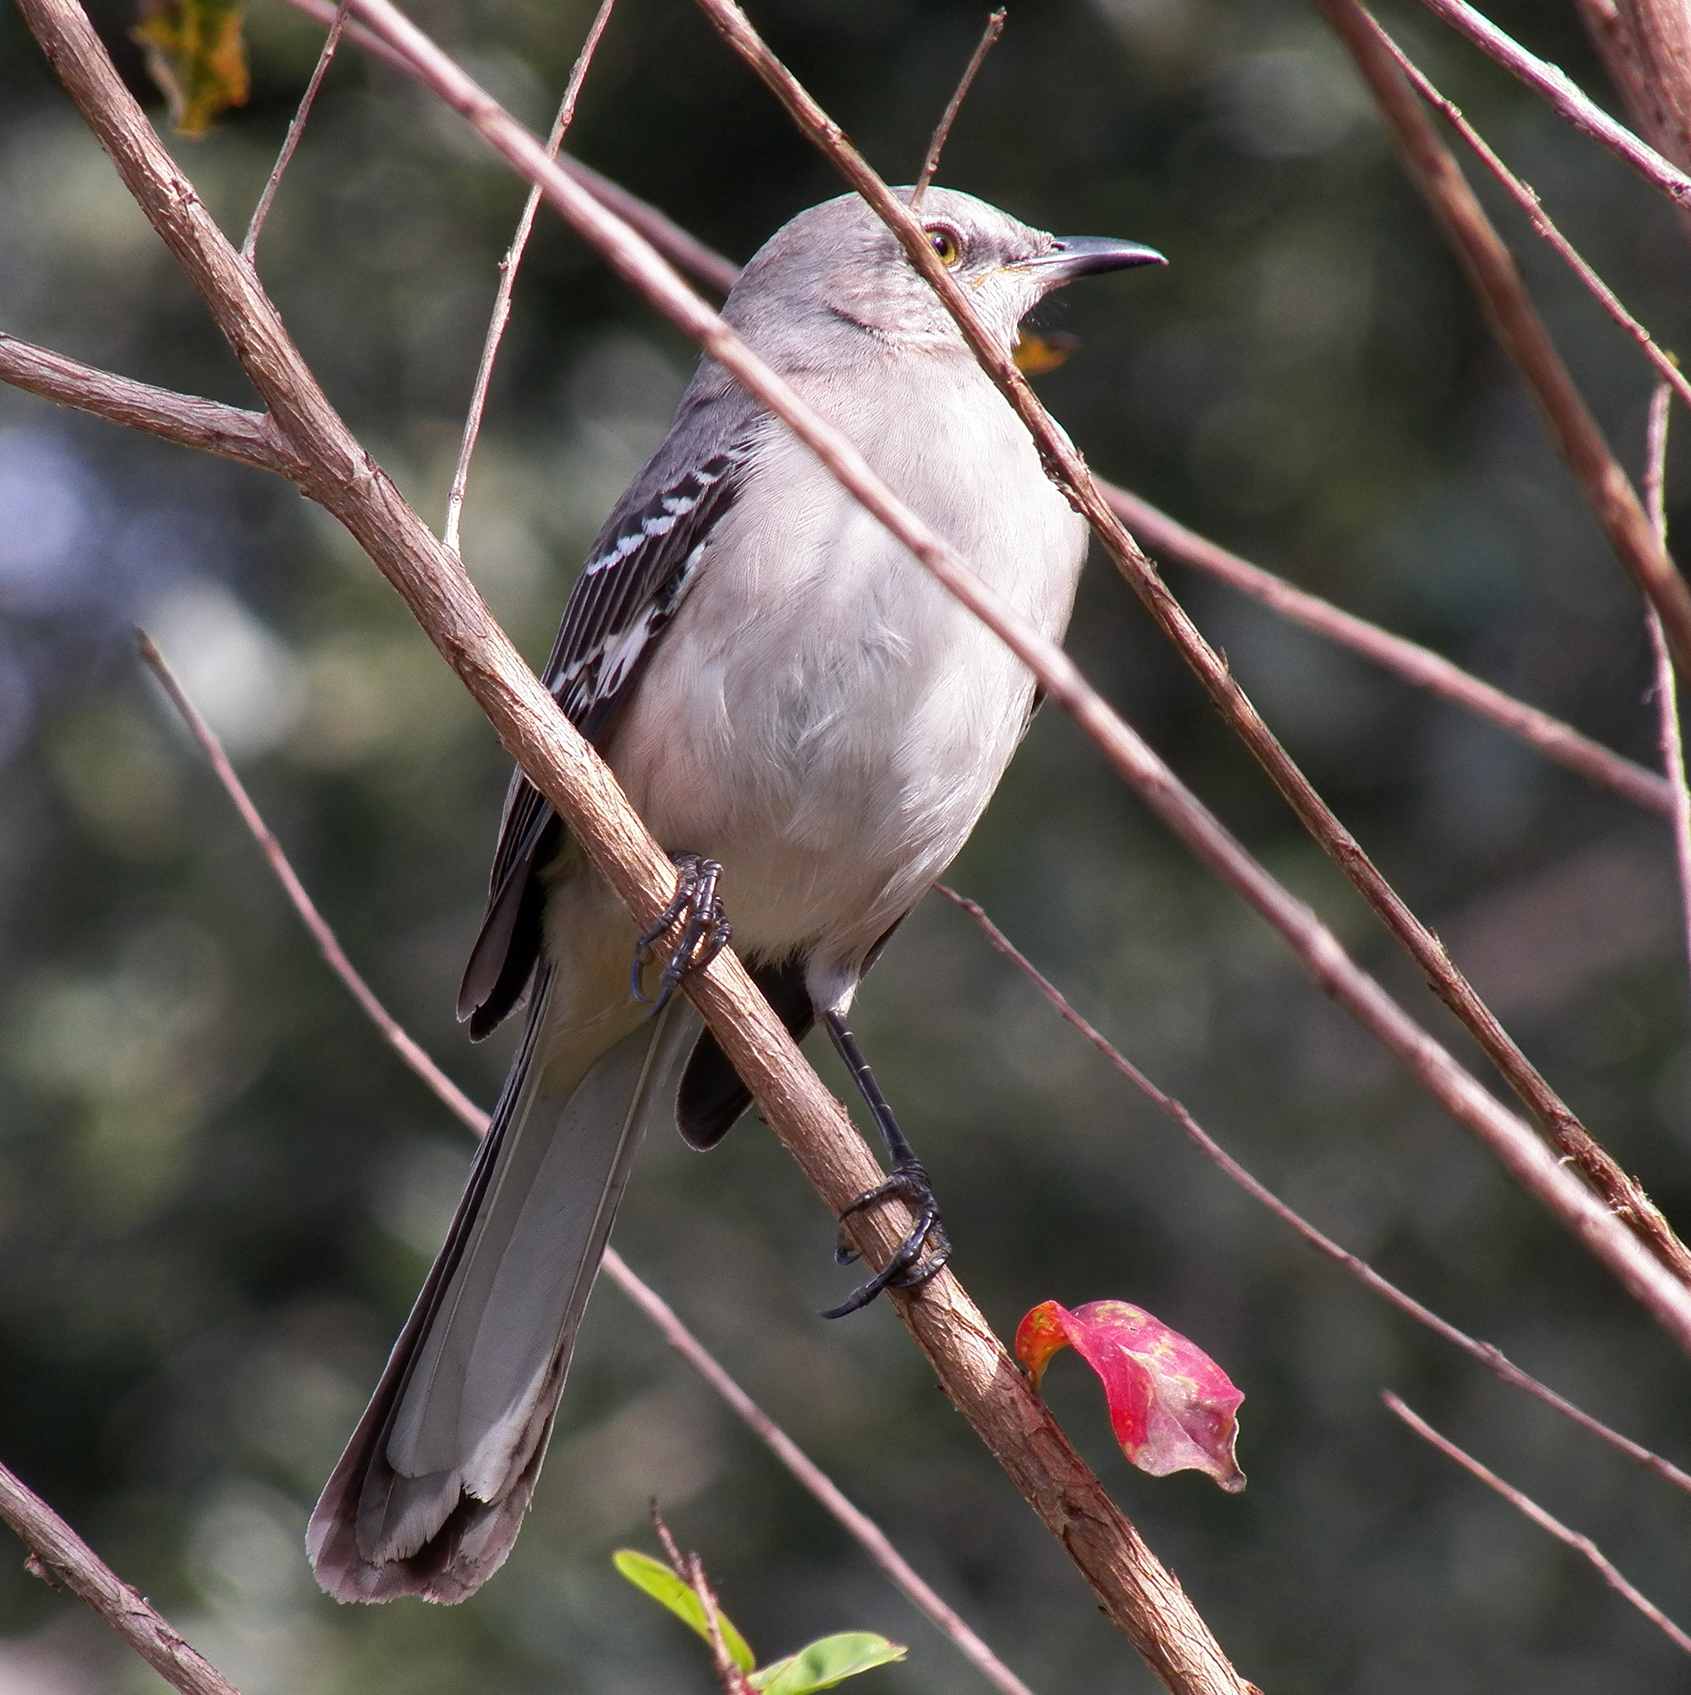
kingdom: Animalia
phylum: Chordata
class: Aves
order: Passeriformes
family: Mimidae
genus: Mimus
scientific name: Mimus polyglottos
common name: Northern mockingbird
